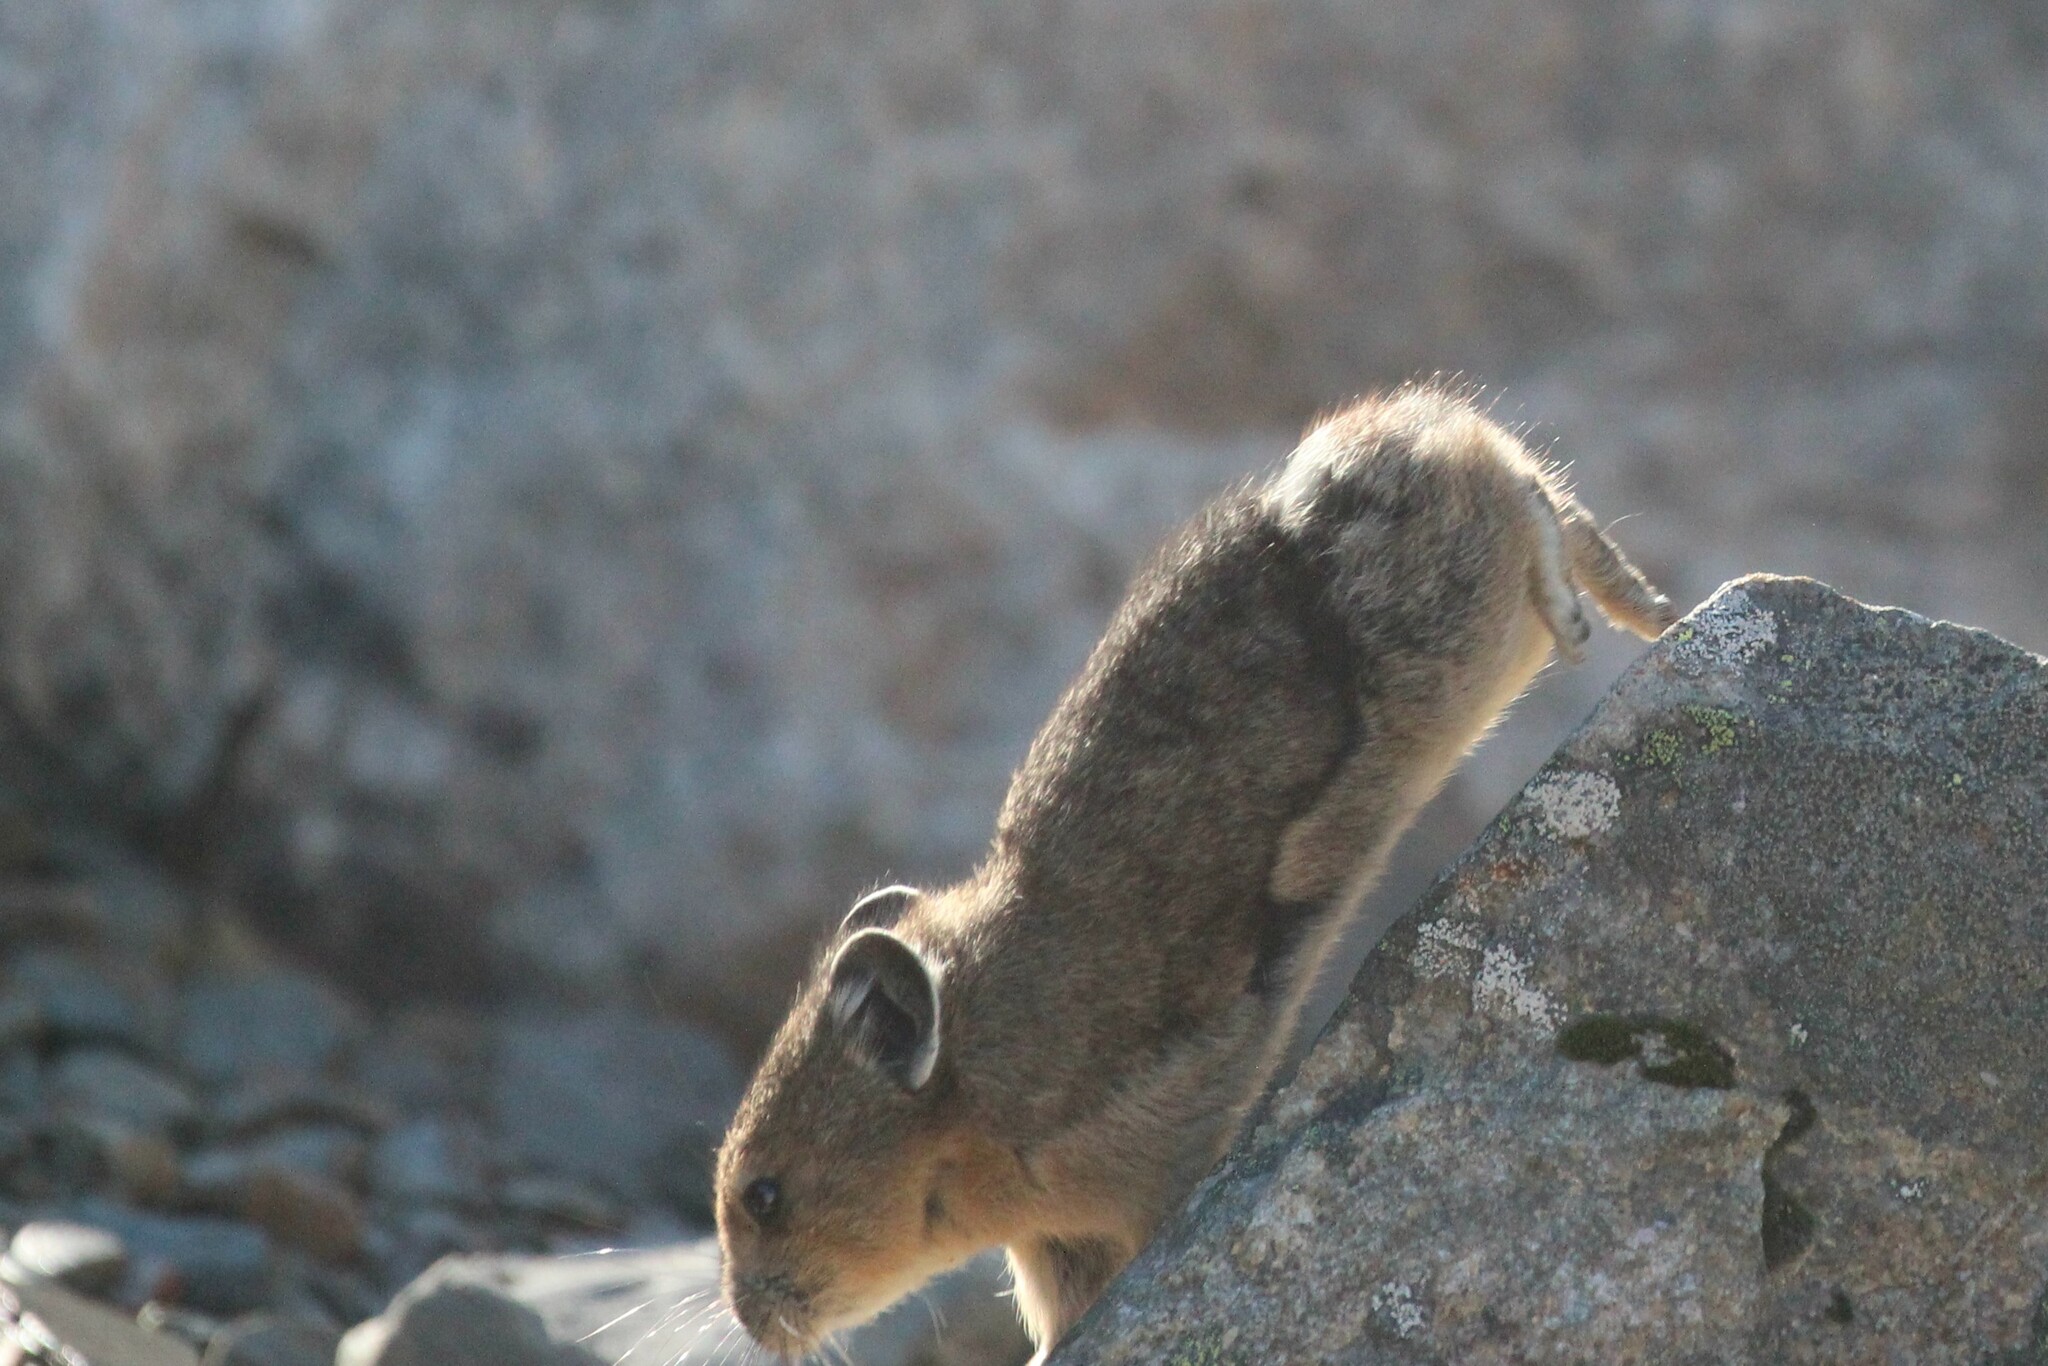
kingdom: Animalia
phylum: Chordata
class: Mammalia
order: Lagomorpha
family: Ochotonidae
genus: Ochotona
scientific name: Ochotona princeps
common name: American pika
